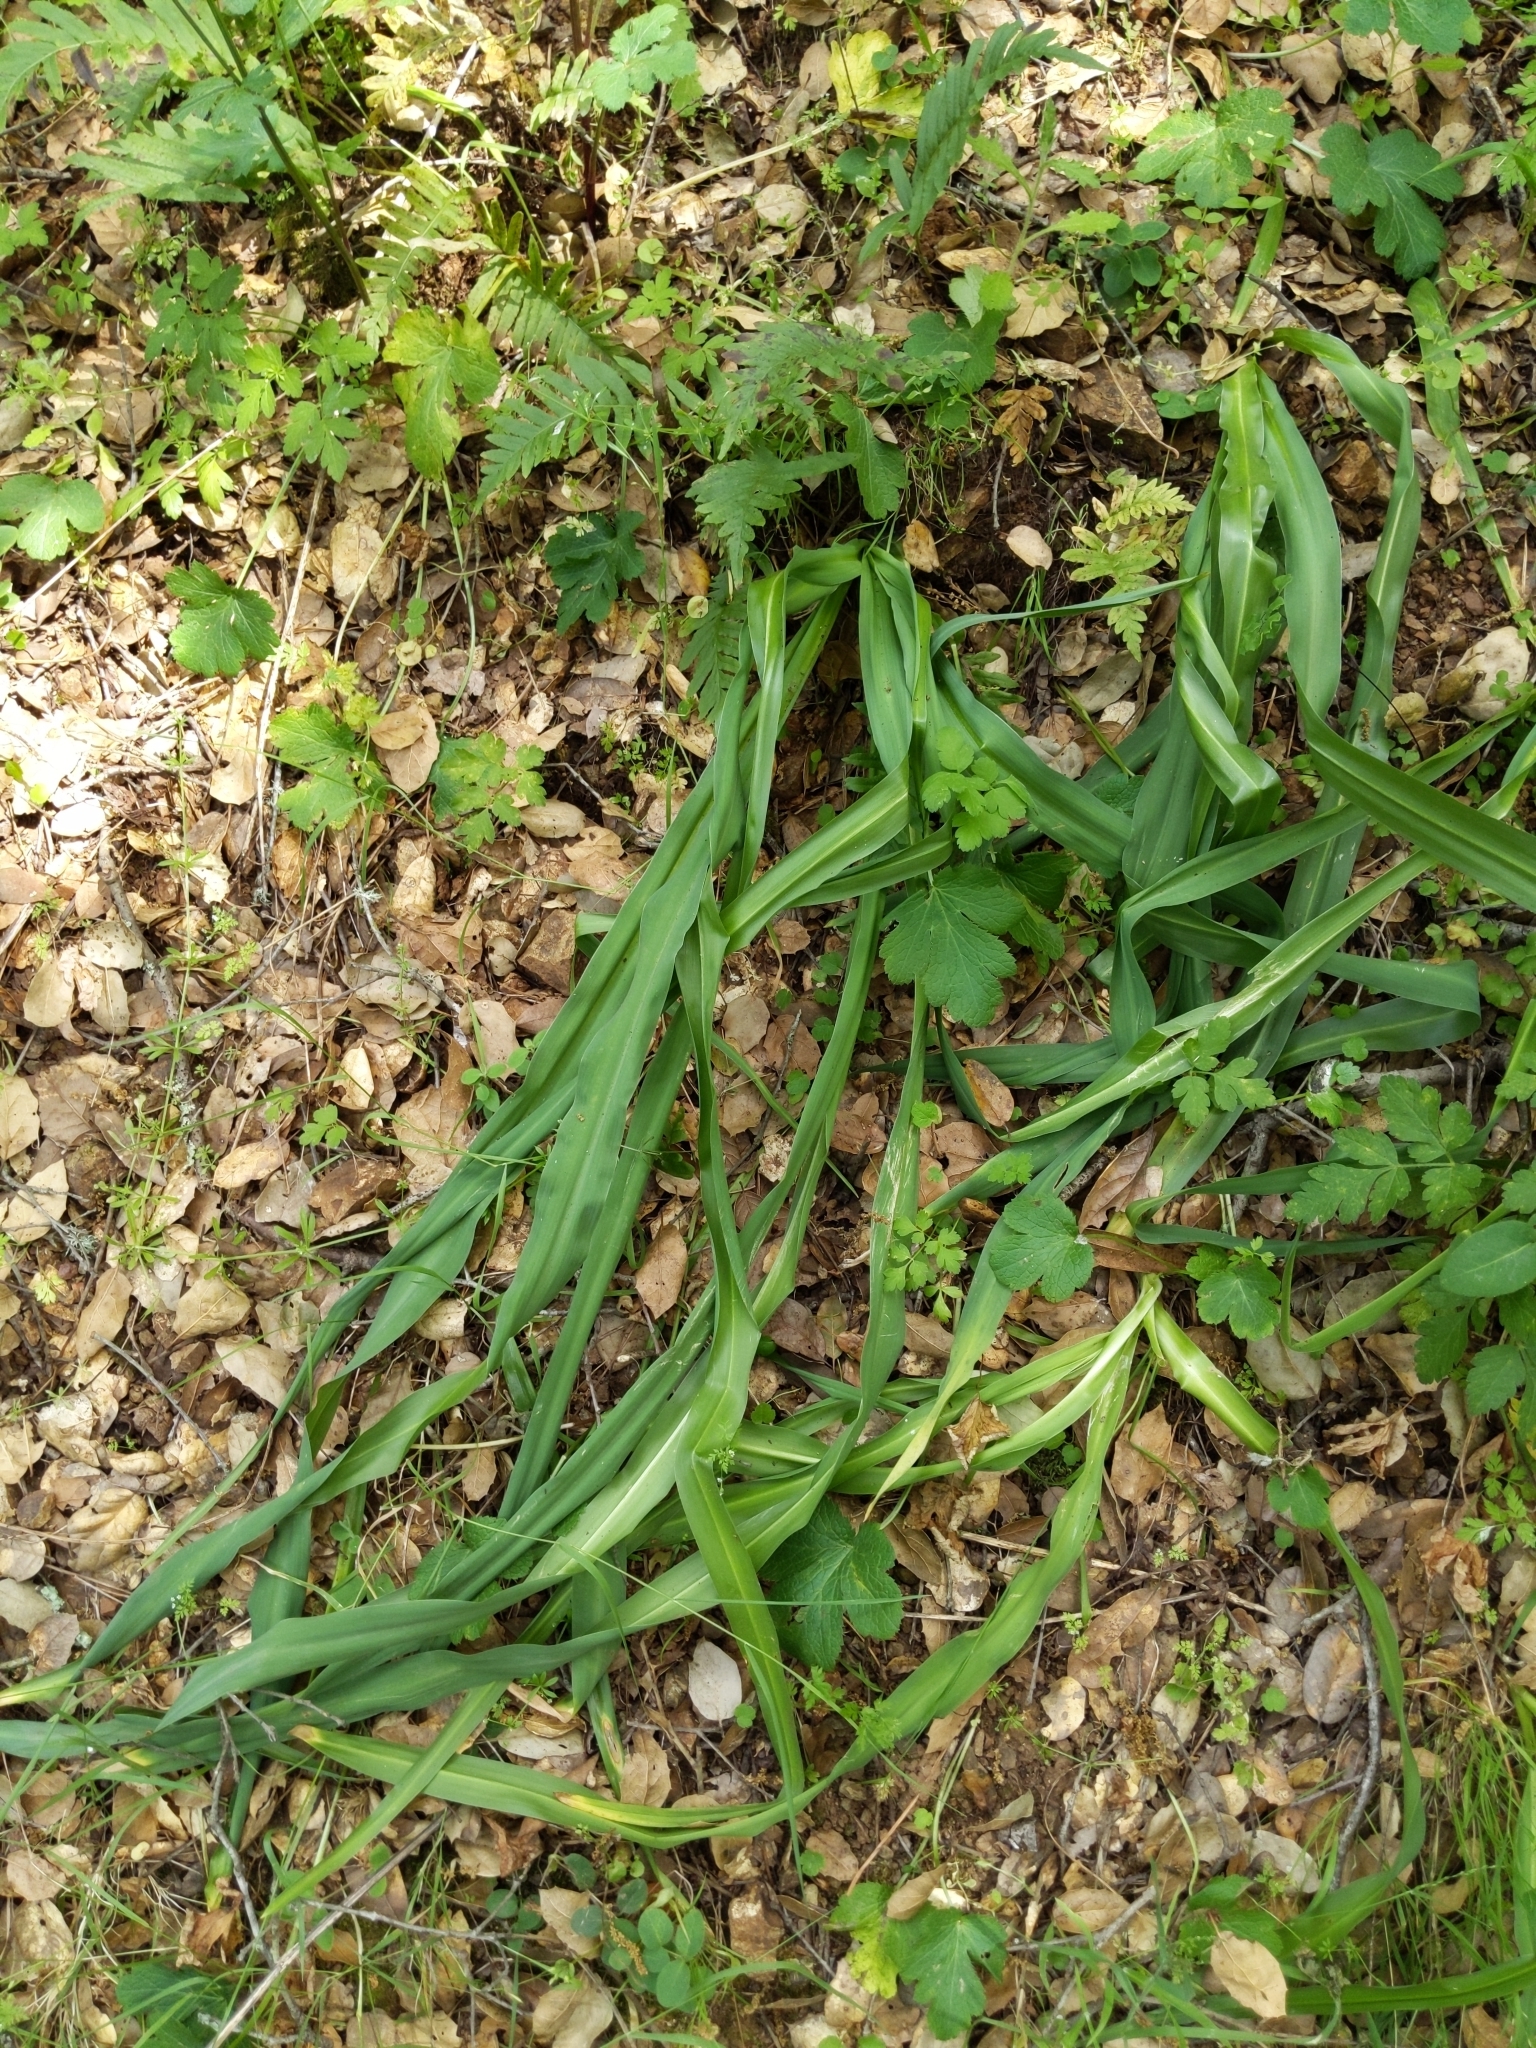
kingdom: Plantae
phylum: Tracheophyta
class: Liliopsida
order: Asparagales
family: Asparagaceae
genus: Chlorogalum
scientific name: Chlorogalum pomeridianum
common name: Amole
